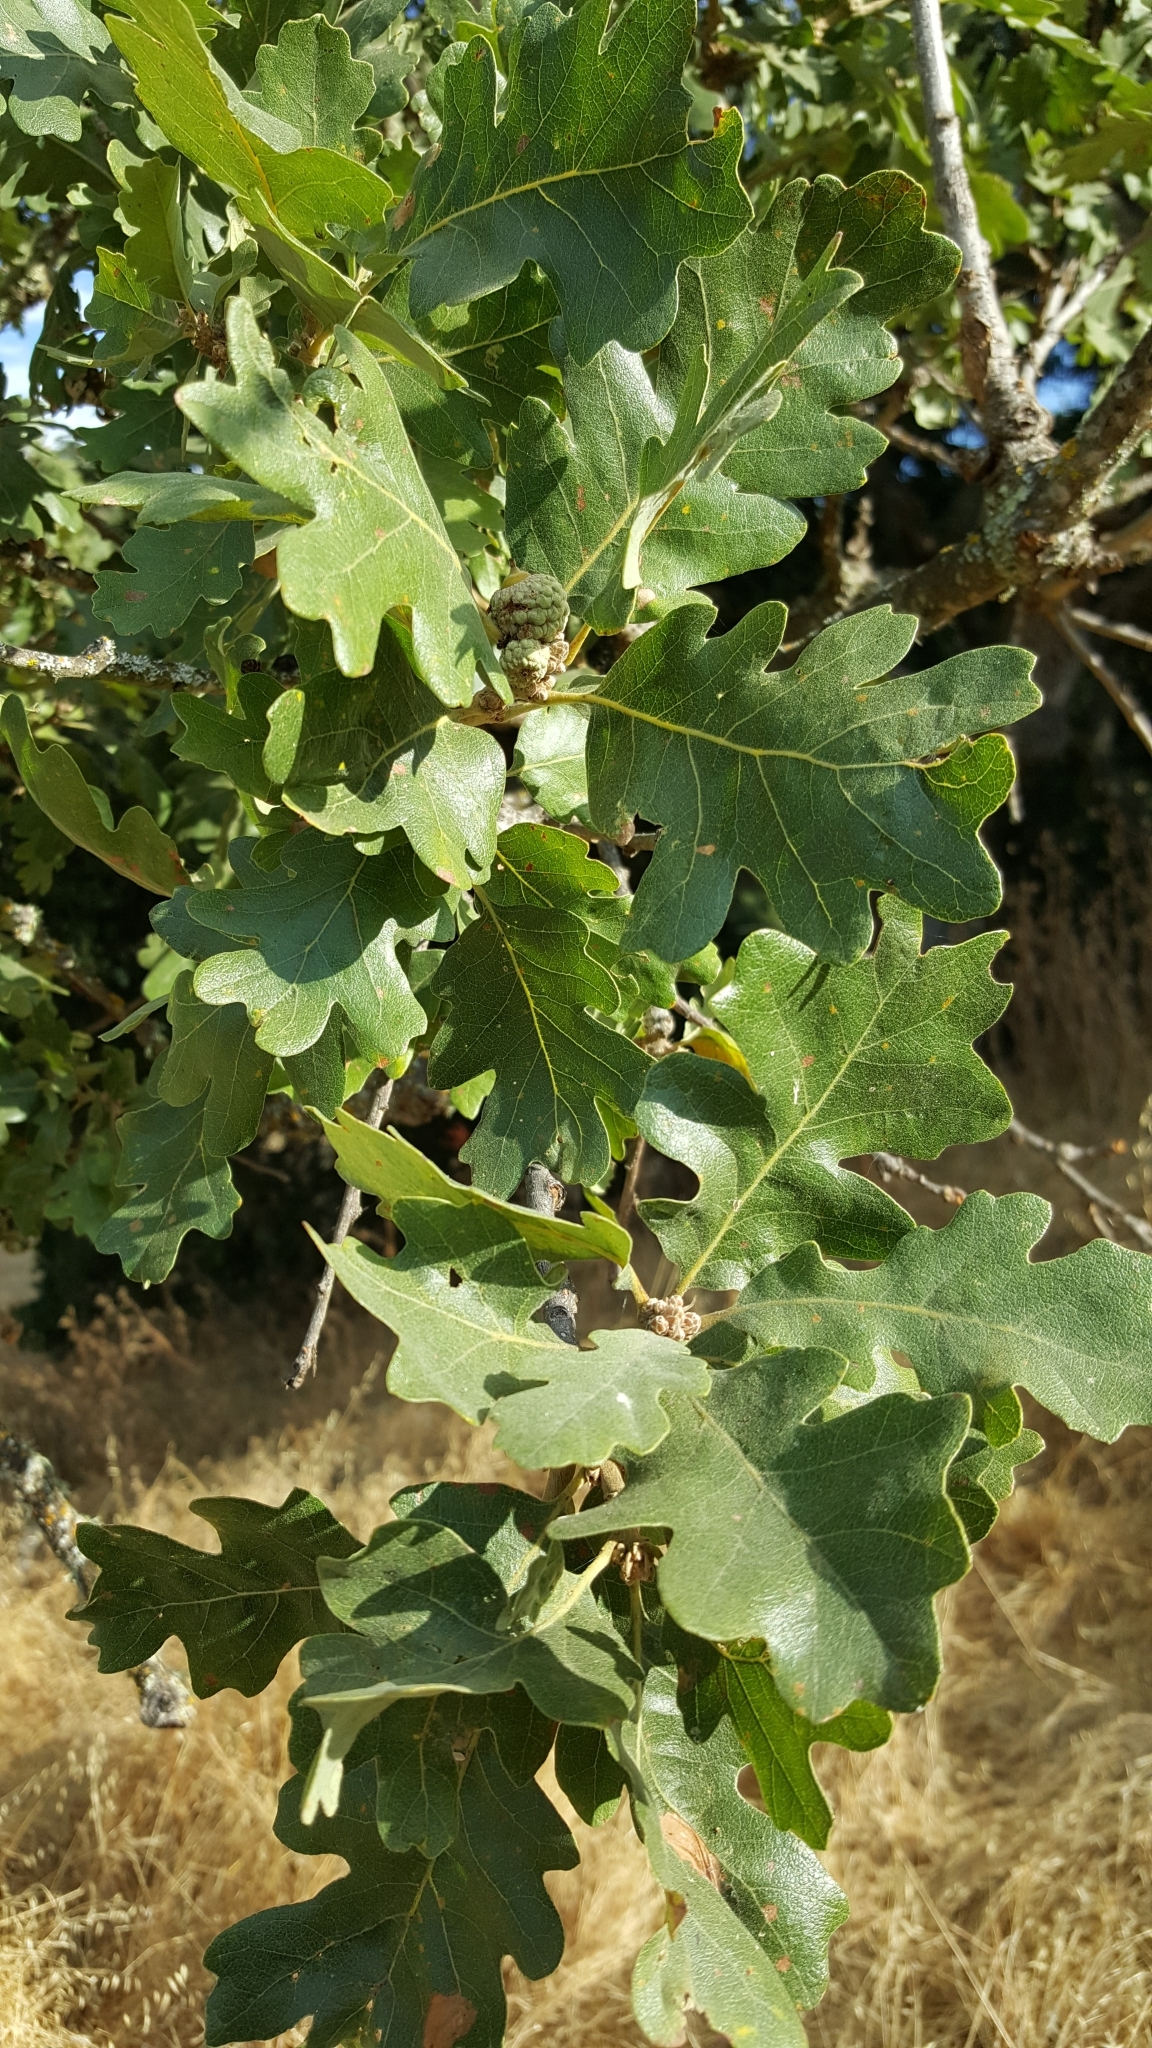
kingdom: Plantae
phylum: Tracheophyta
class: Magnoliopsida
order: Fagales
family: Fagaceae
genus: Quercus
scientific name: Quercus lobata
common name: Valley oak
